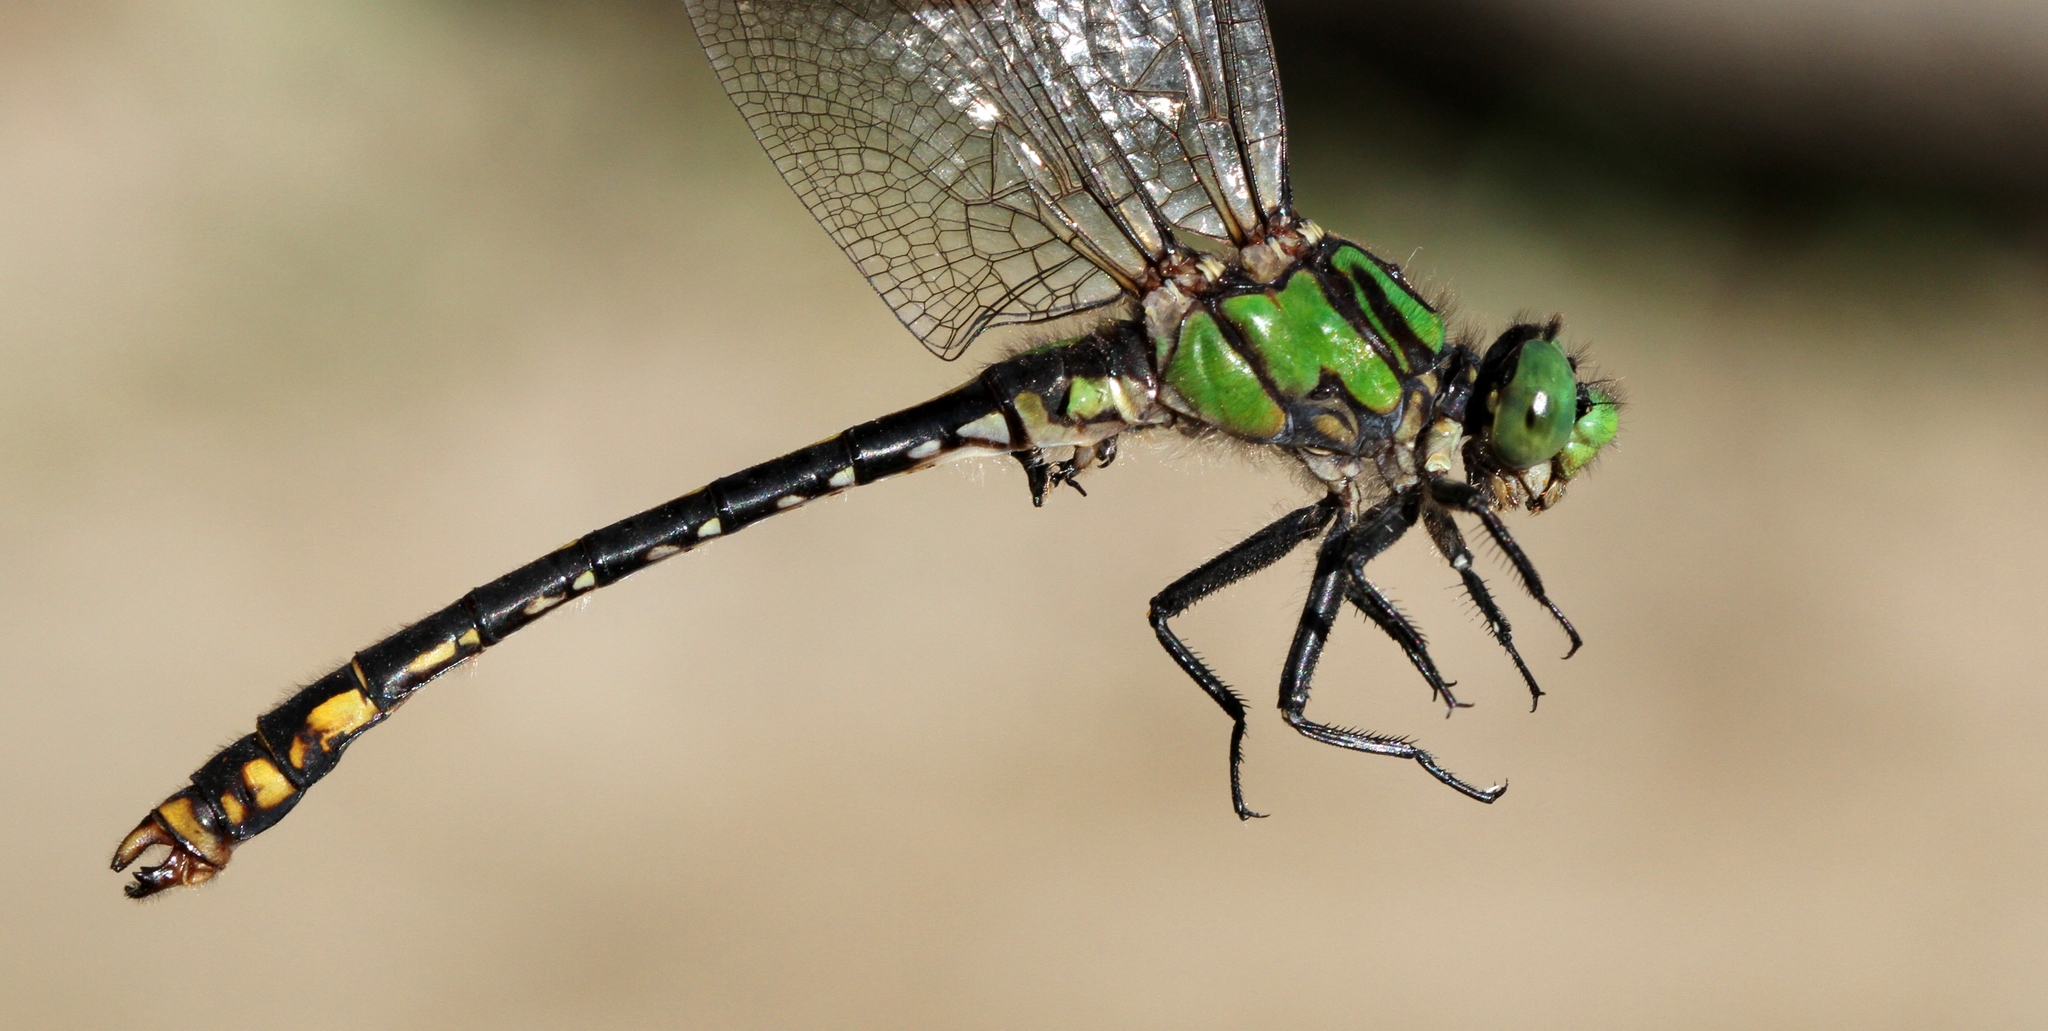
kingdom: Animalia
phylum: Arthropoda
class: Insecta
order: Odonata
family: Gomphidae
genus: Ophiogomphus
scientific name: Ophiogomphus mainensis
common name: Maine snaketail
